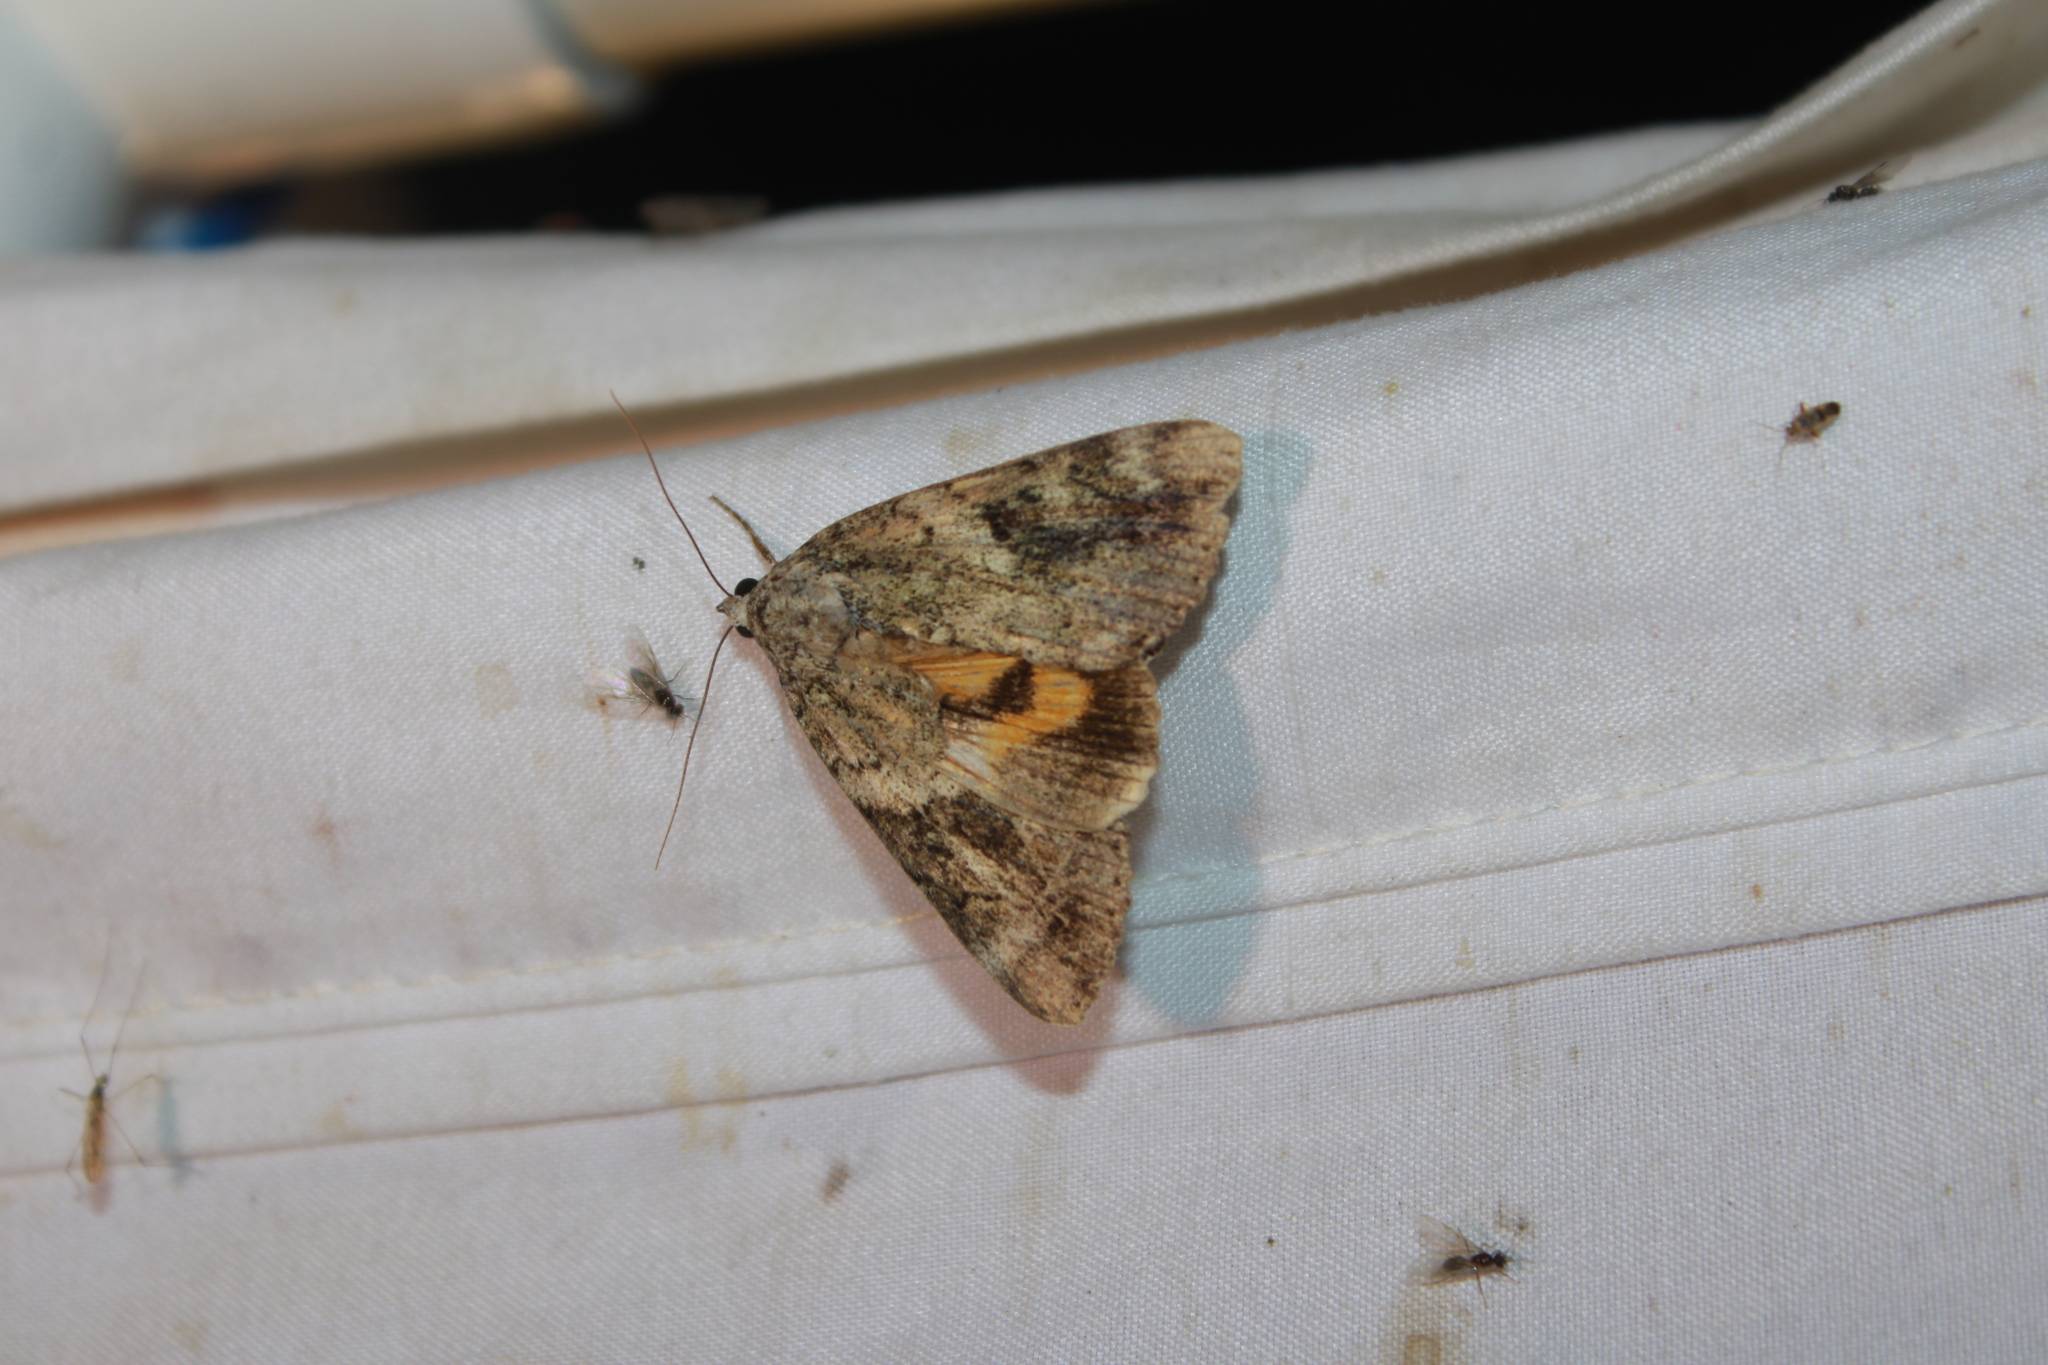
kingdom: Animalia
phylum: Arthropoda
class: Insecta
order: Lepidoptera
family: Erebidae
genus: Catocala
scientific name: Catocala micronympha
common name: Little nymph underwing
